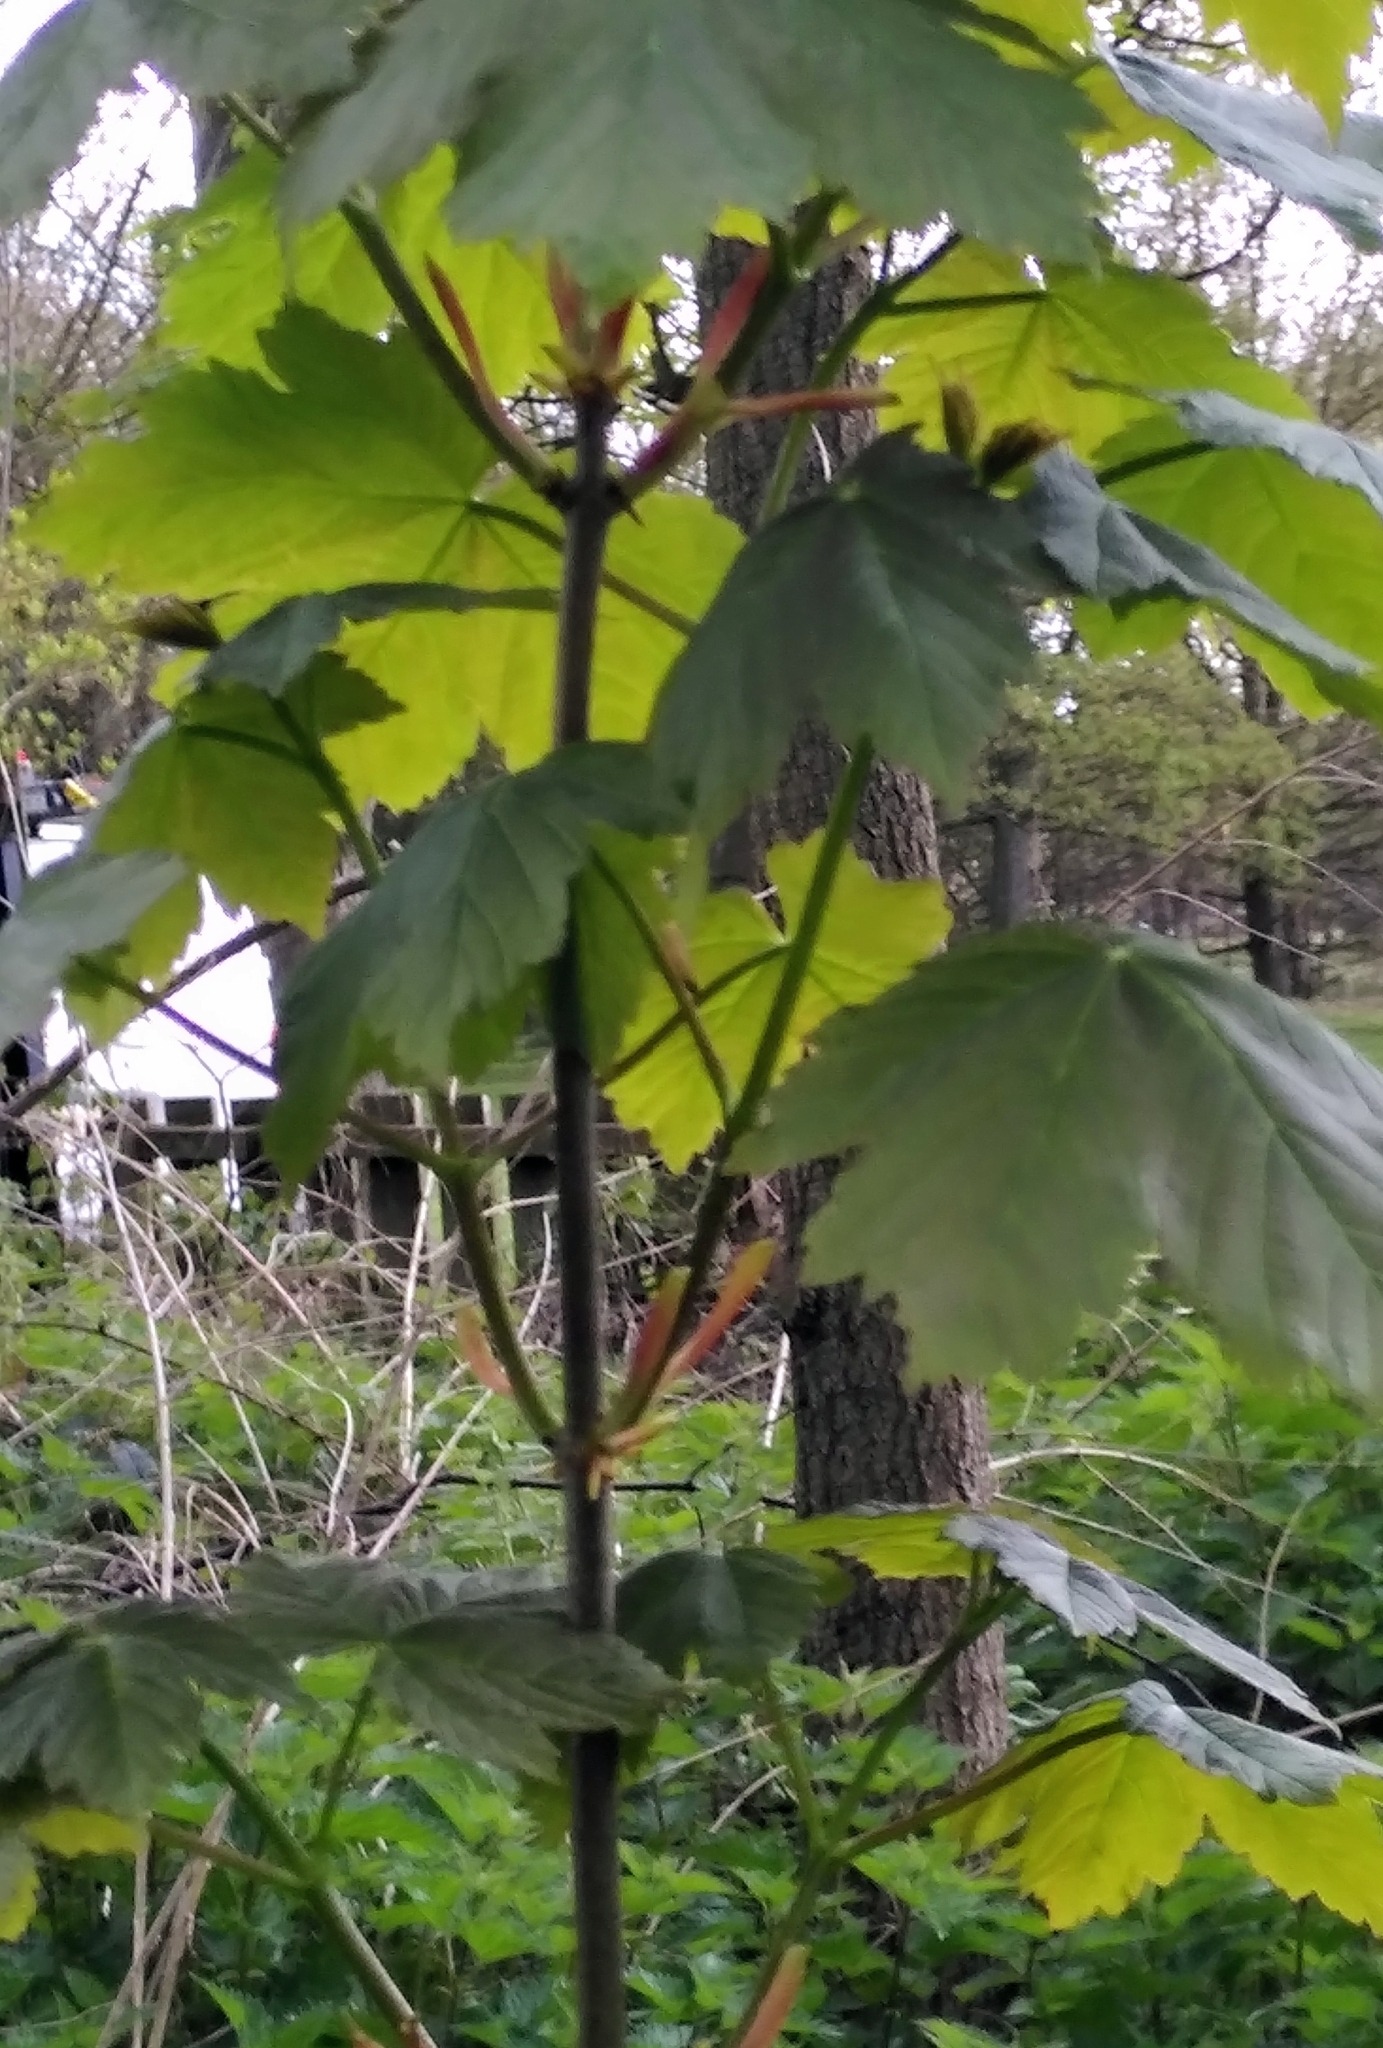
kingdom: Plantae
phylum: Tracheophyta
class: Magnoliopsida
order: Sapindales
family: Sapindaceae
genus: Acer
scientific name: Acer pseudoplatanus
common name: Sycamore
